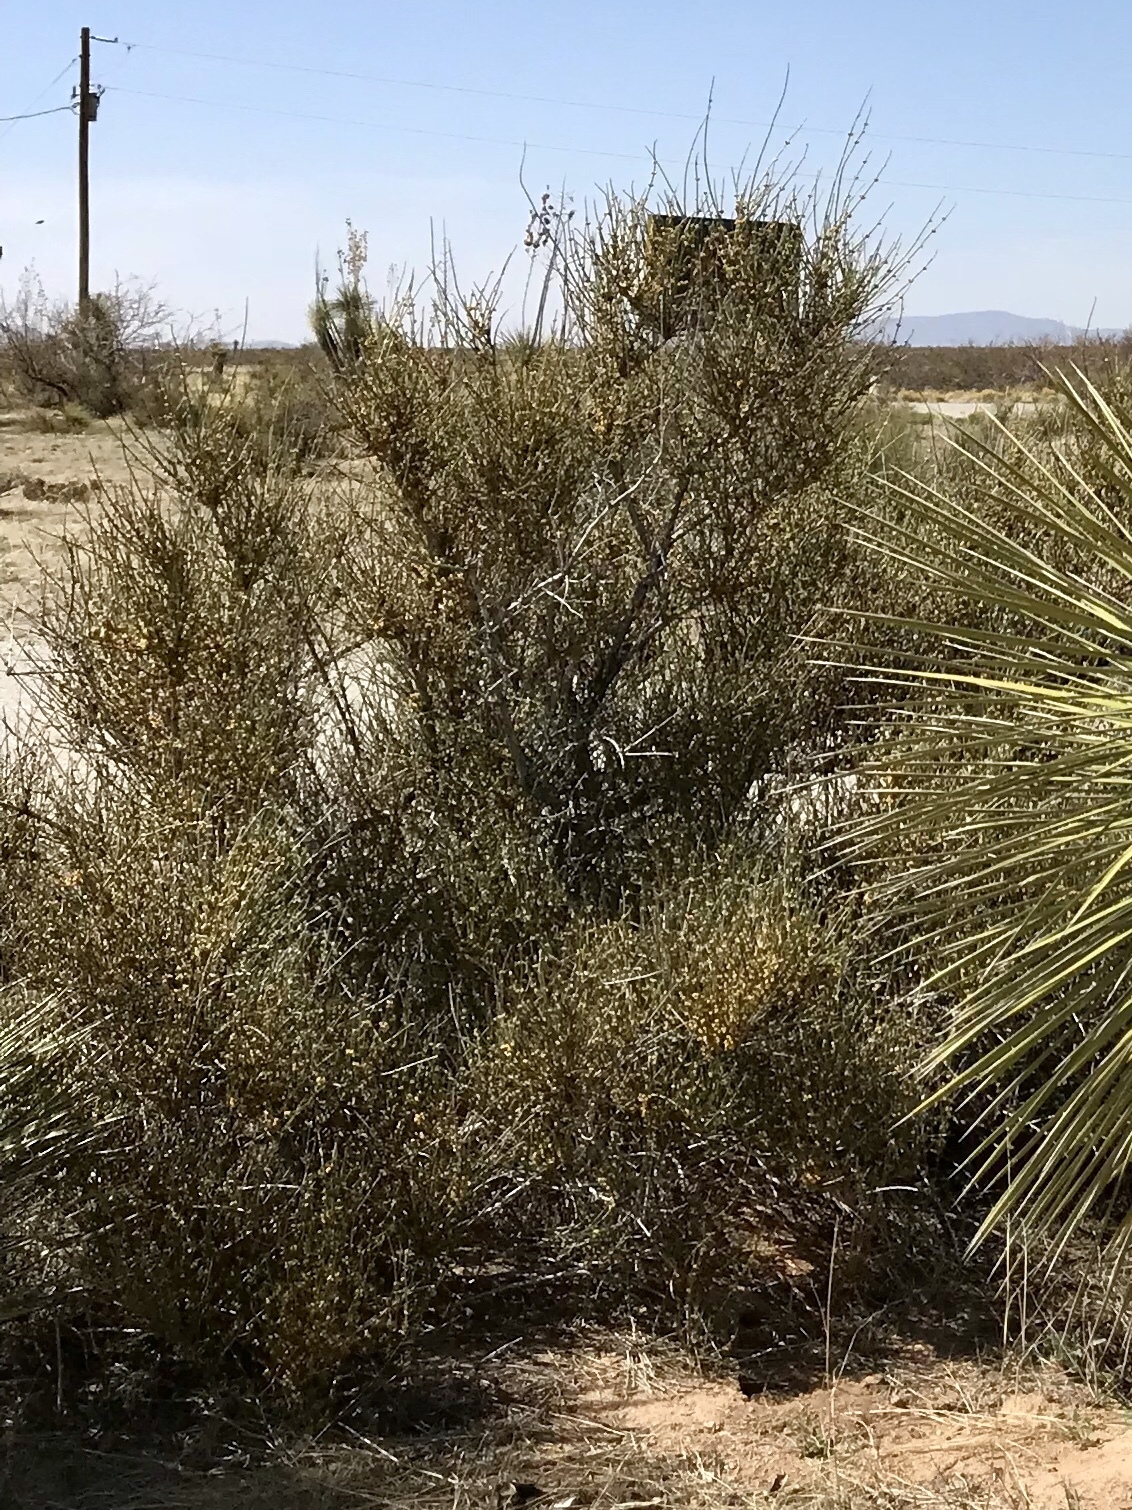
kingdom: Plantae
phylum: Tracheophyta
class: Gnetopsida
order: Ephedrales
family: Ephedraceae
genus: Ephedra
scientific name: Ephedra trifurca
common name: Mexican-tea
